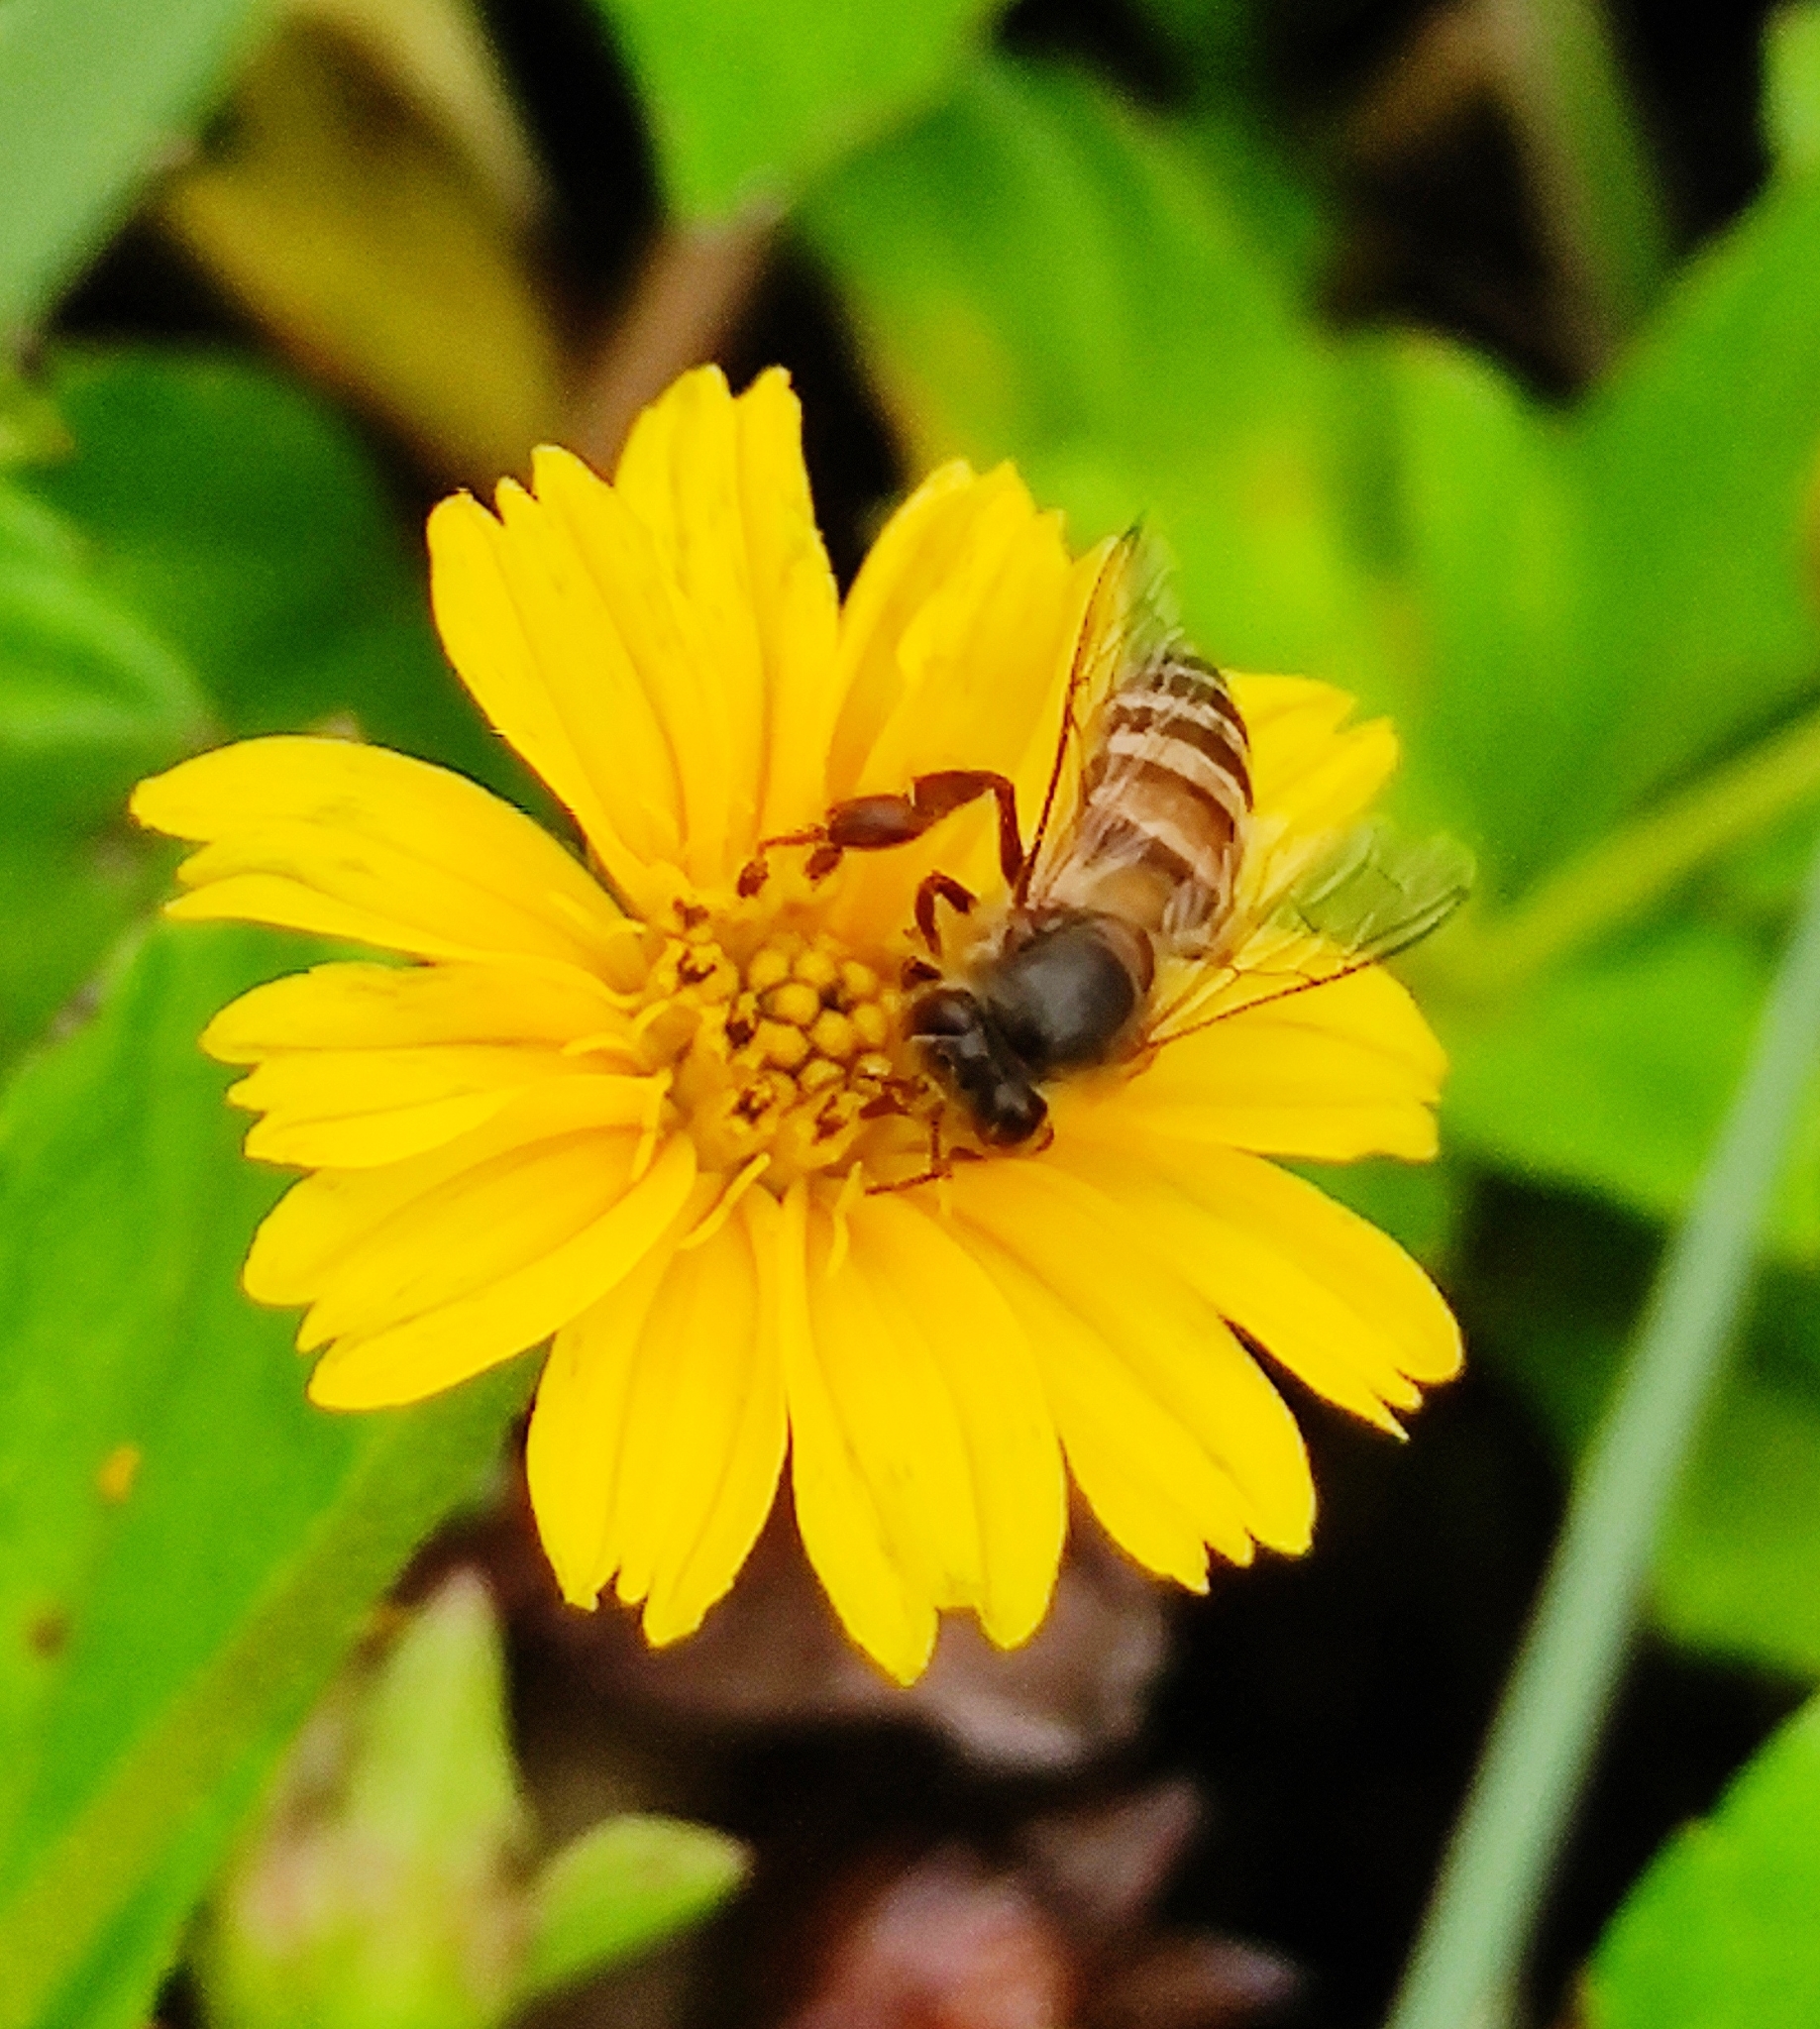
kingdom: Animalia
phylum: Arthropoda
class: Insecta
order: Hymenoptera
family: Apidae
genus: Apis
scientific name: Apis cerana
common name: Honey bee
